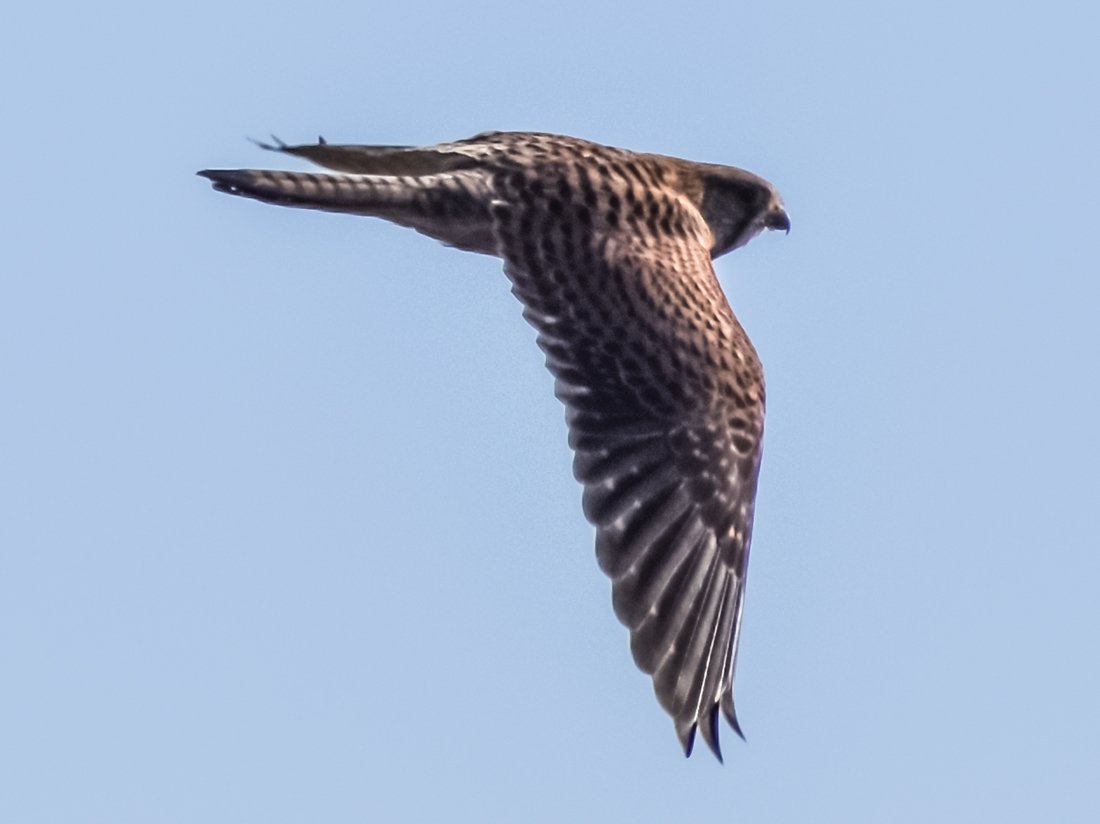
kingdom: Animalia
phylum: Chordata
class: Aves
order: Falconiformes
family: Falconidae
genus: Falco
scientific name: Falco tinnunculus
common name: Common kestrel
